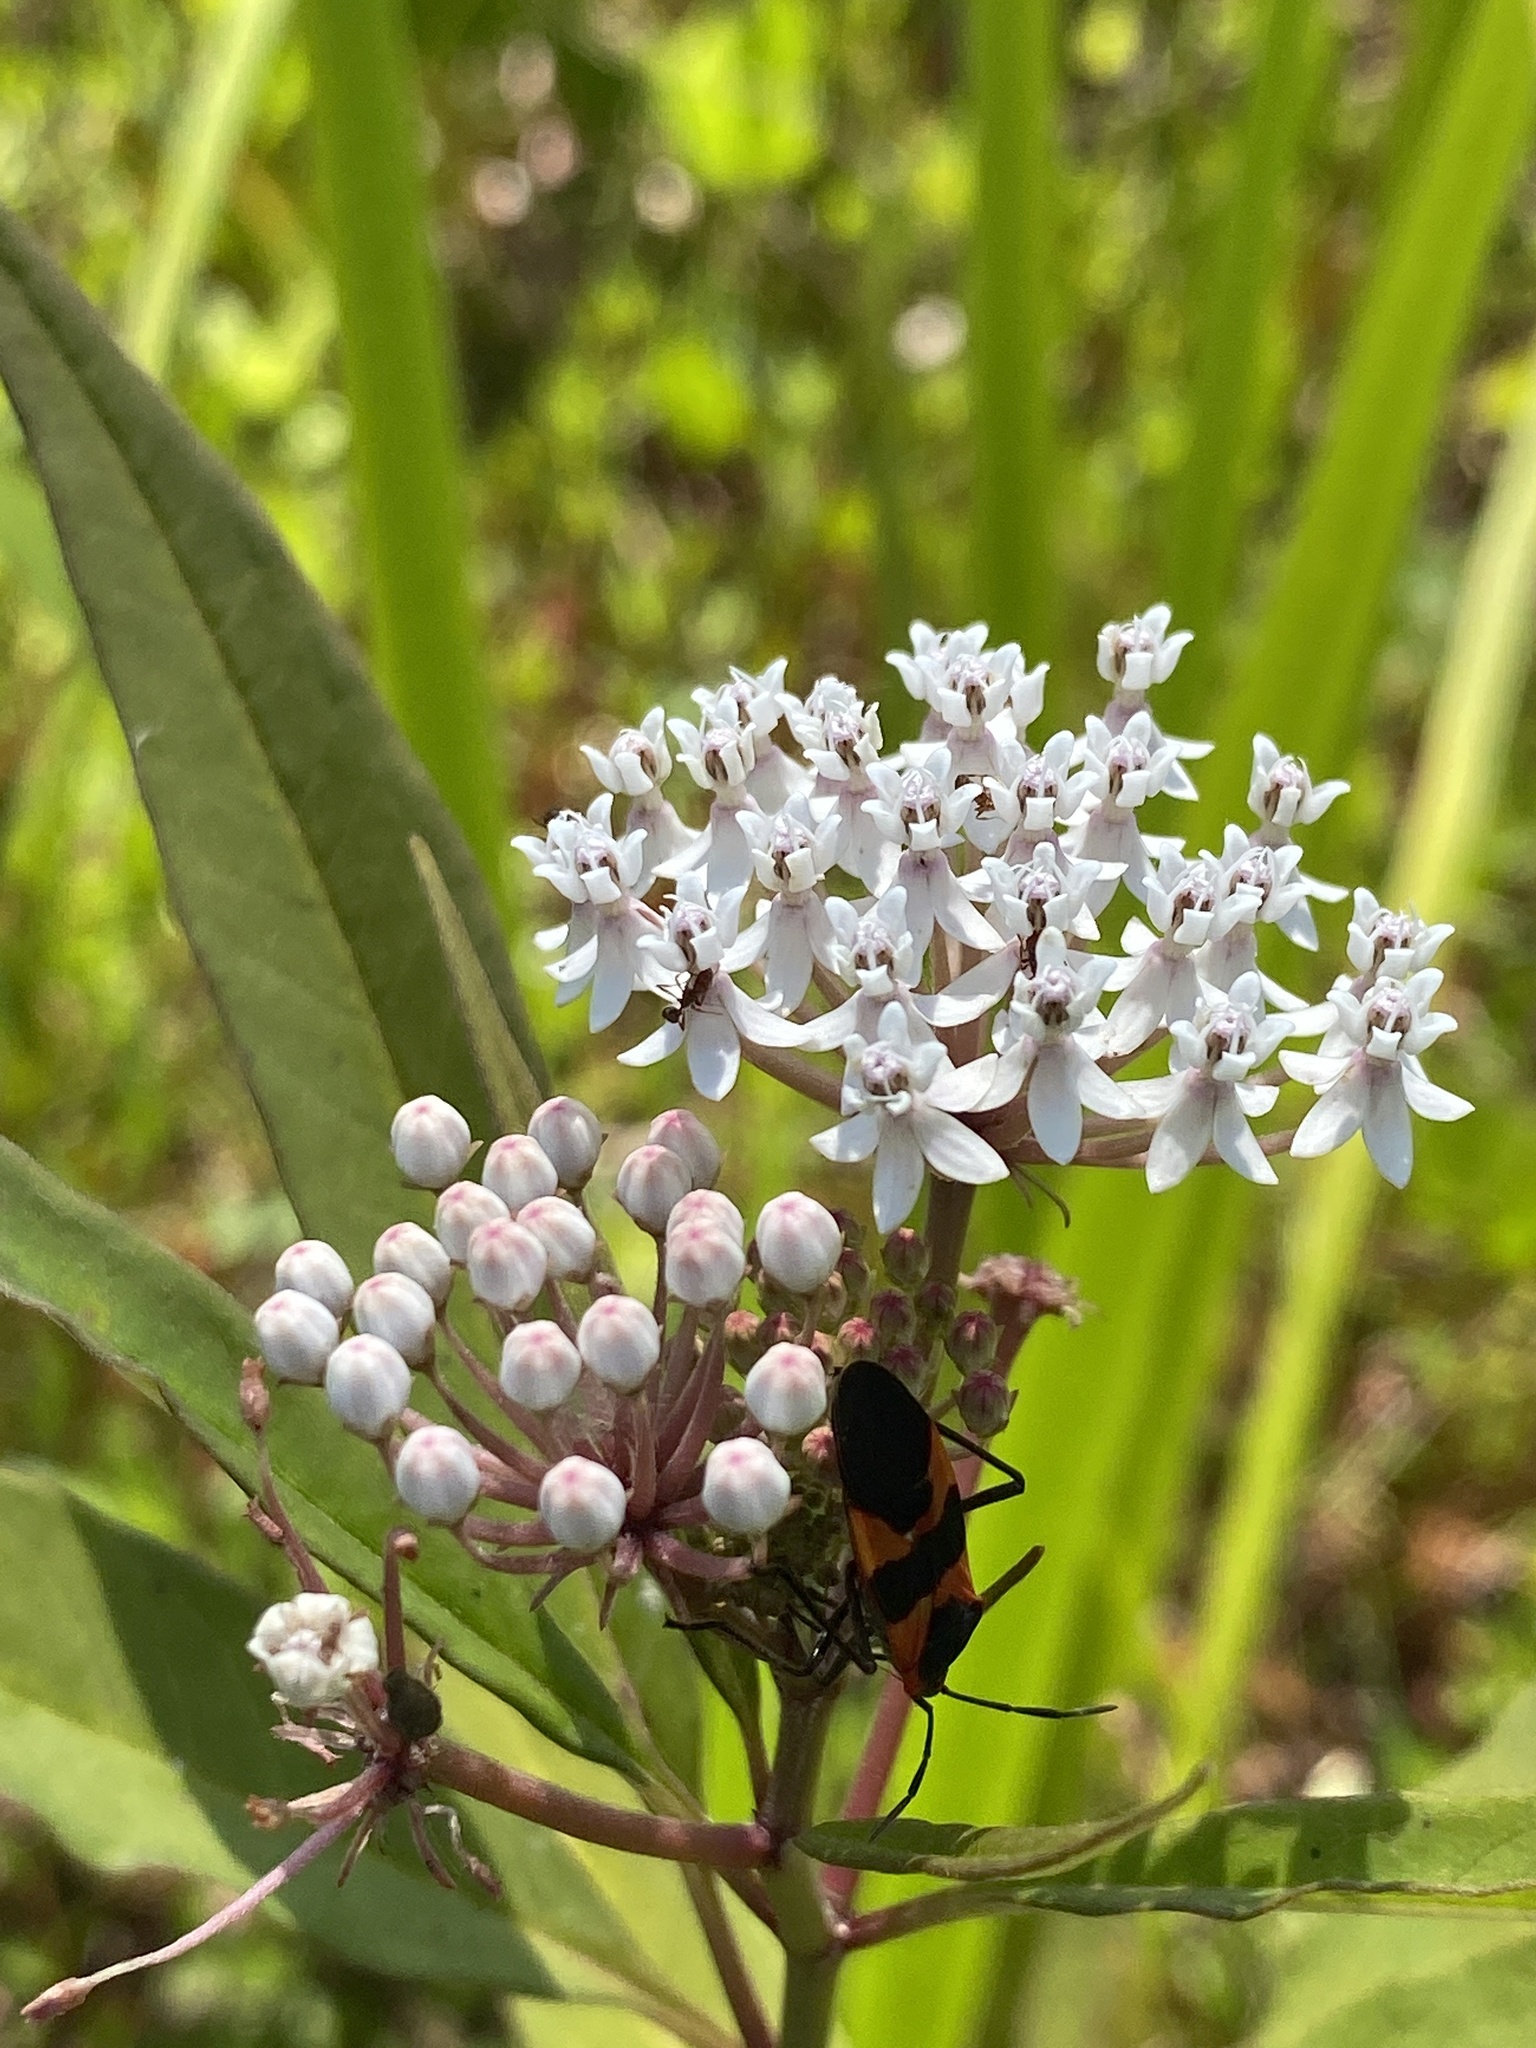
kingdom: Animalia
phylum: Arthropoda
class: Insecta
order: Hemiptera
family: Lygaeidae
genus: Oncopeltus
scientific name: Oncopeltus fasciatus
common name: Large milkweed bug
